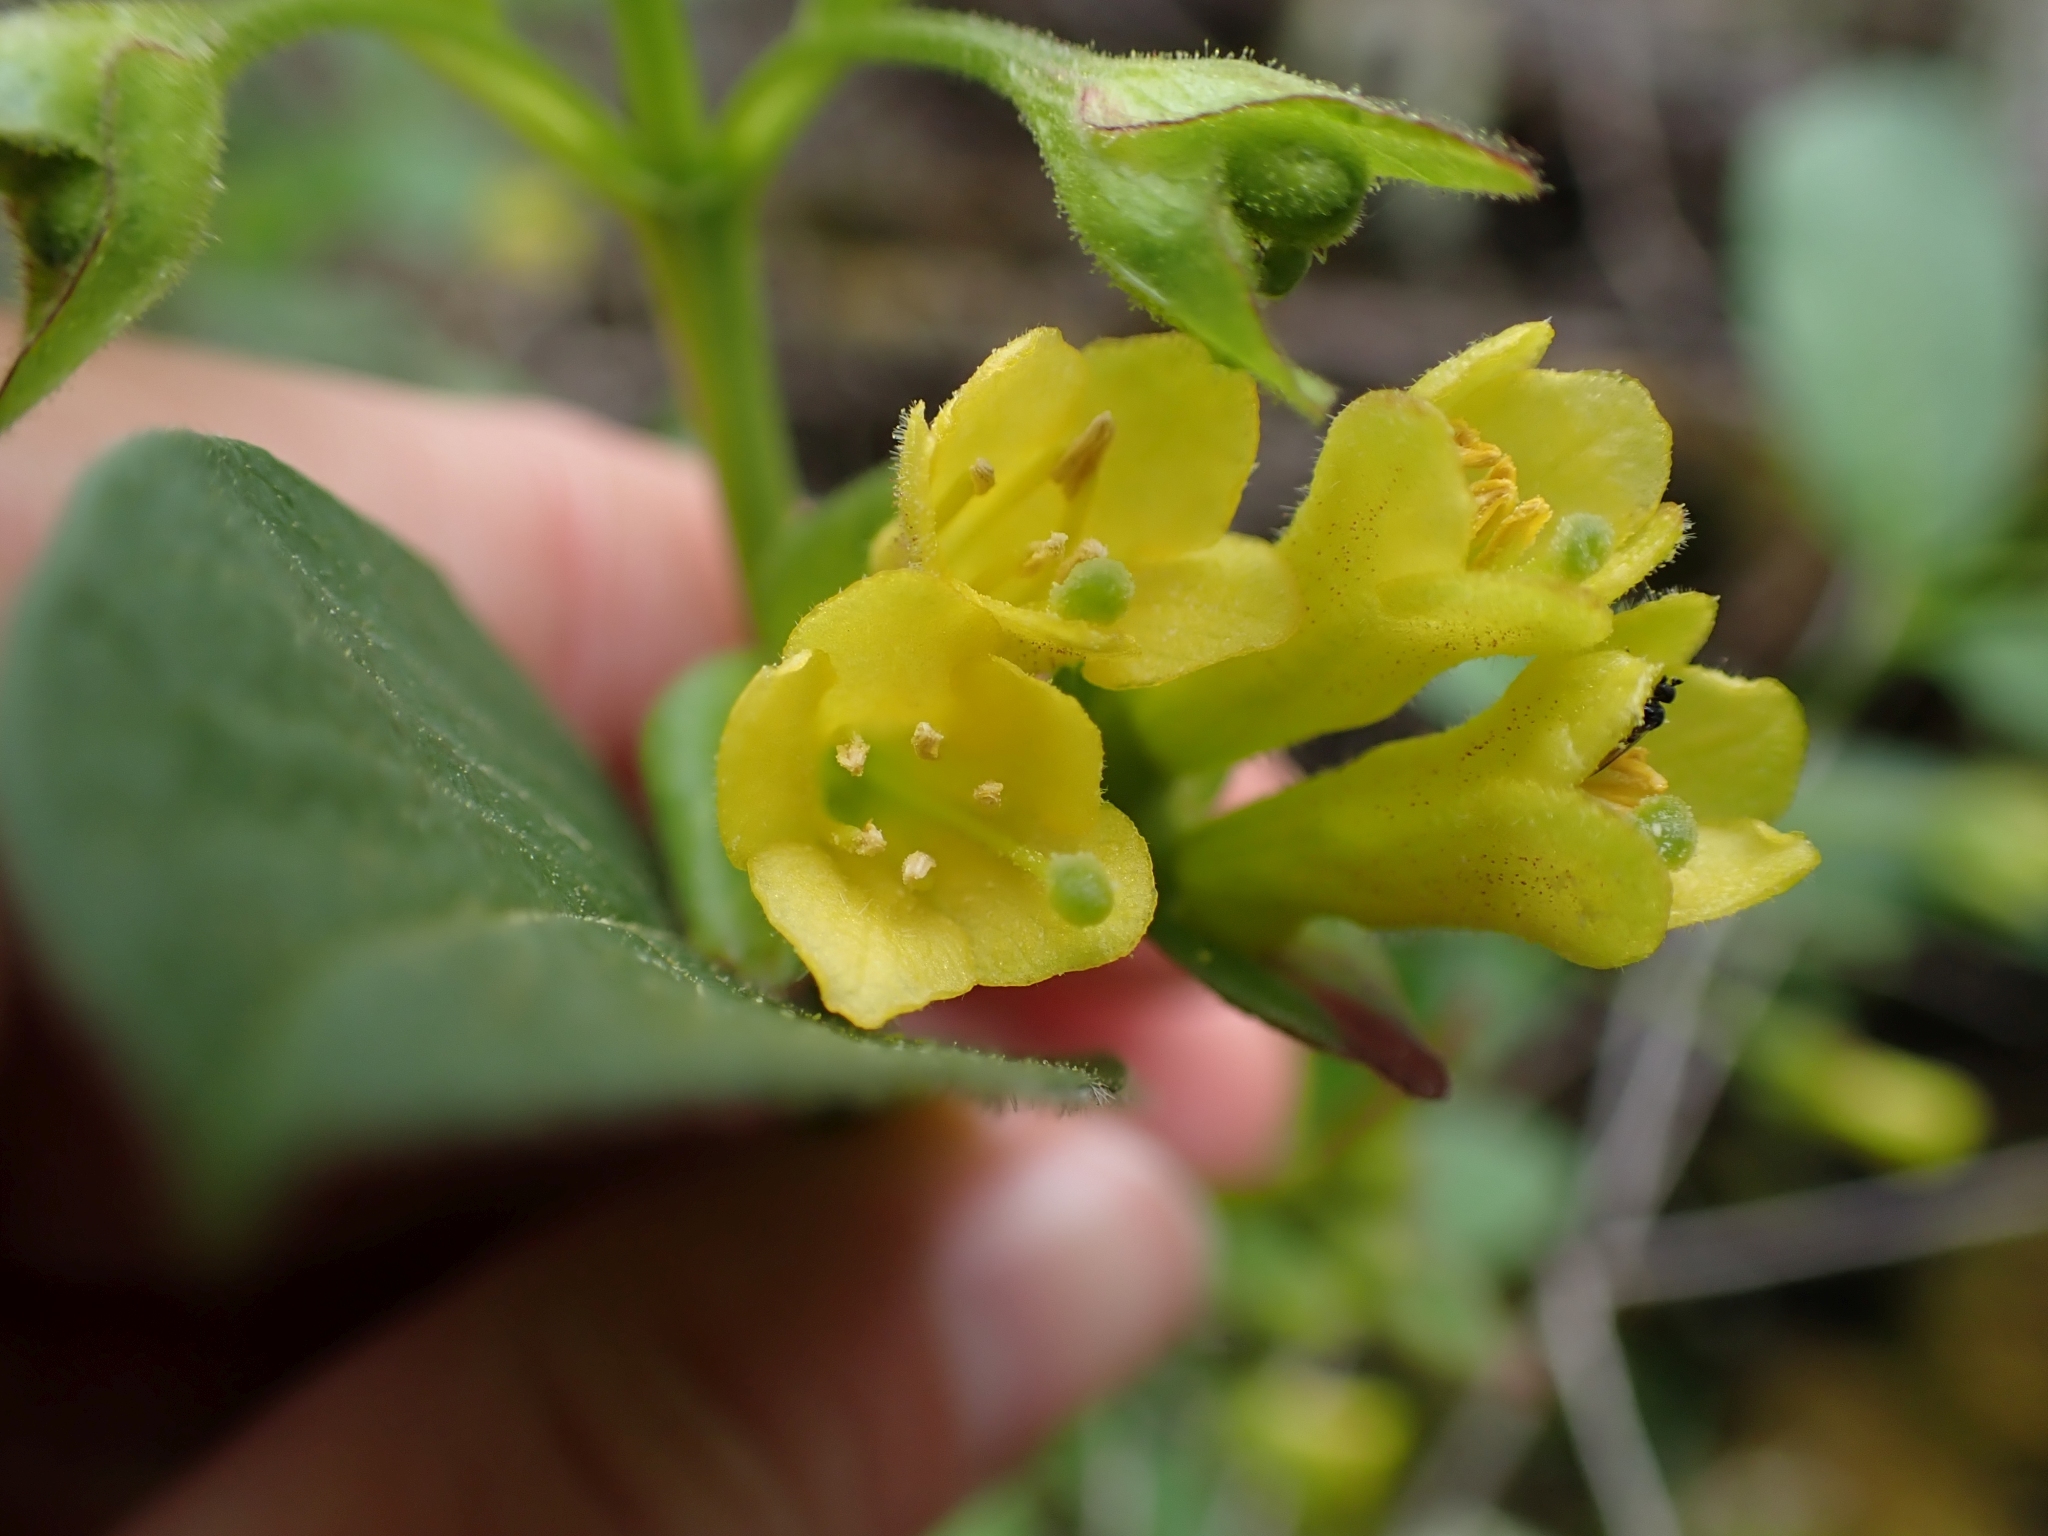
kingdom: Plantae
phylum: Tracheophyta
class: Magnoliopsida
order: Dipsacales
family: Caprifoliaceae
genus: Lonicera
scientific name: Lonicera involucrata
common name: Californian honeysuckle
